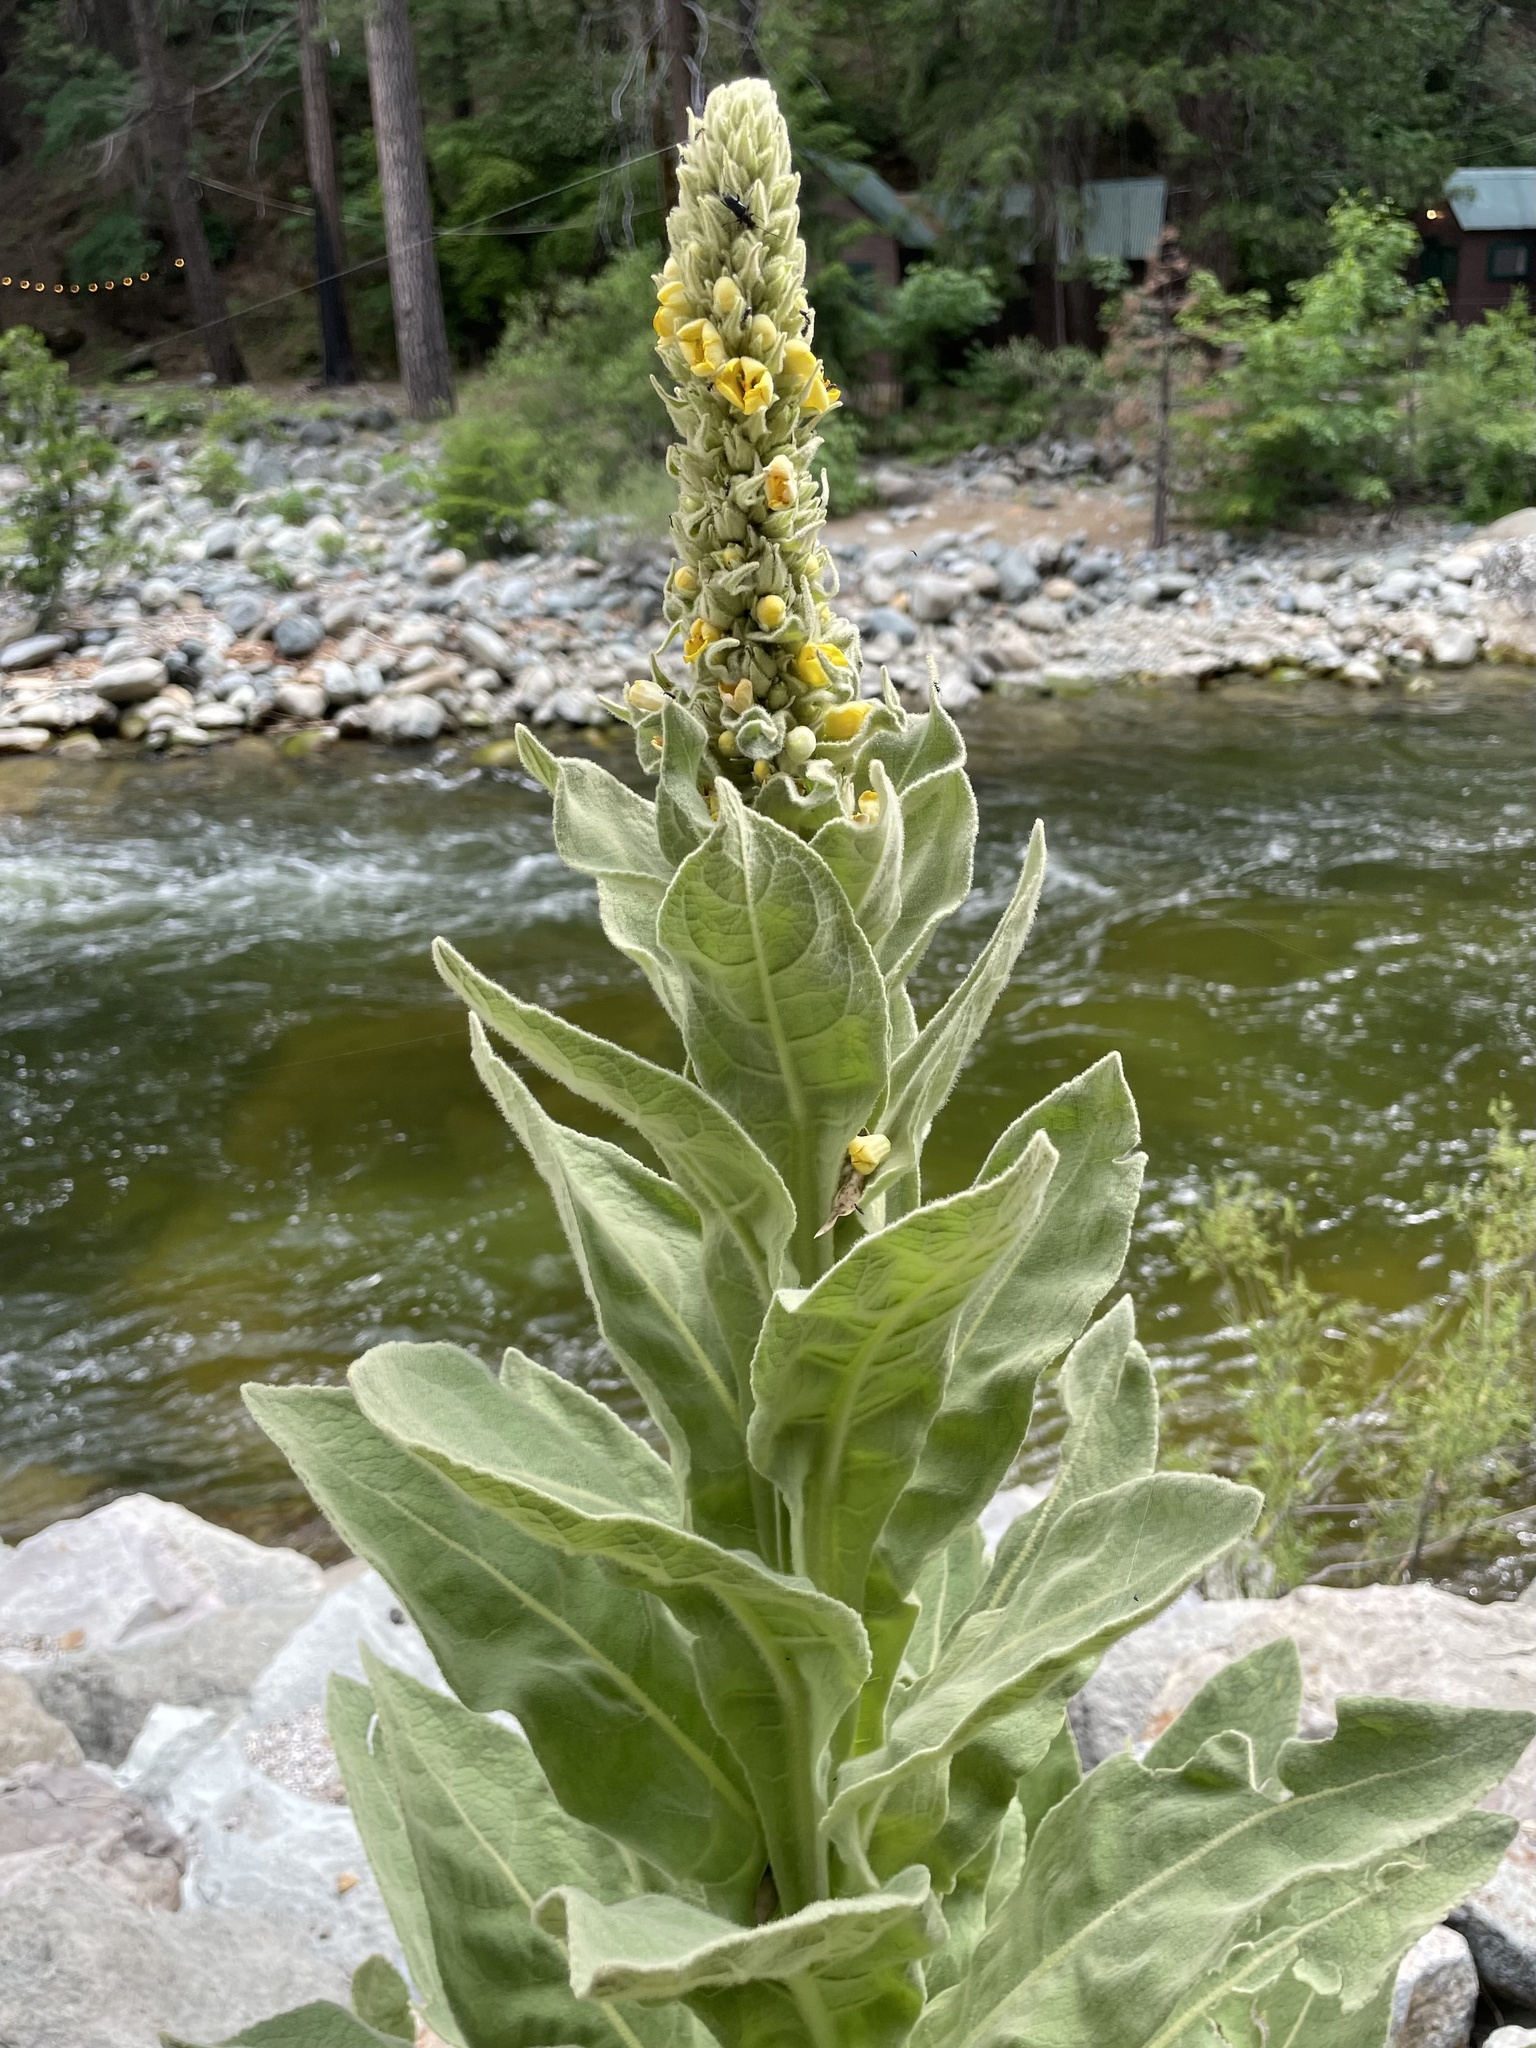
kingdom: Plantae
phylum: Tracheophyta
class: Magnoliopsida
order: Lamiales
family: Scrophulariaceae
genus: Verbascum
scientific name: Verbascum thapsus
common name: Common mullein
